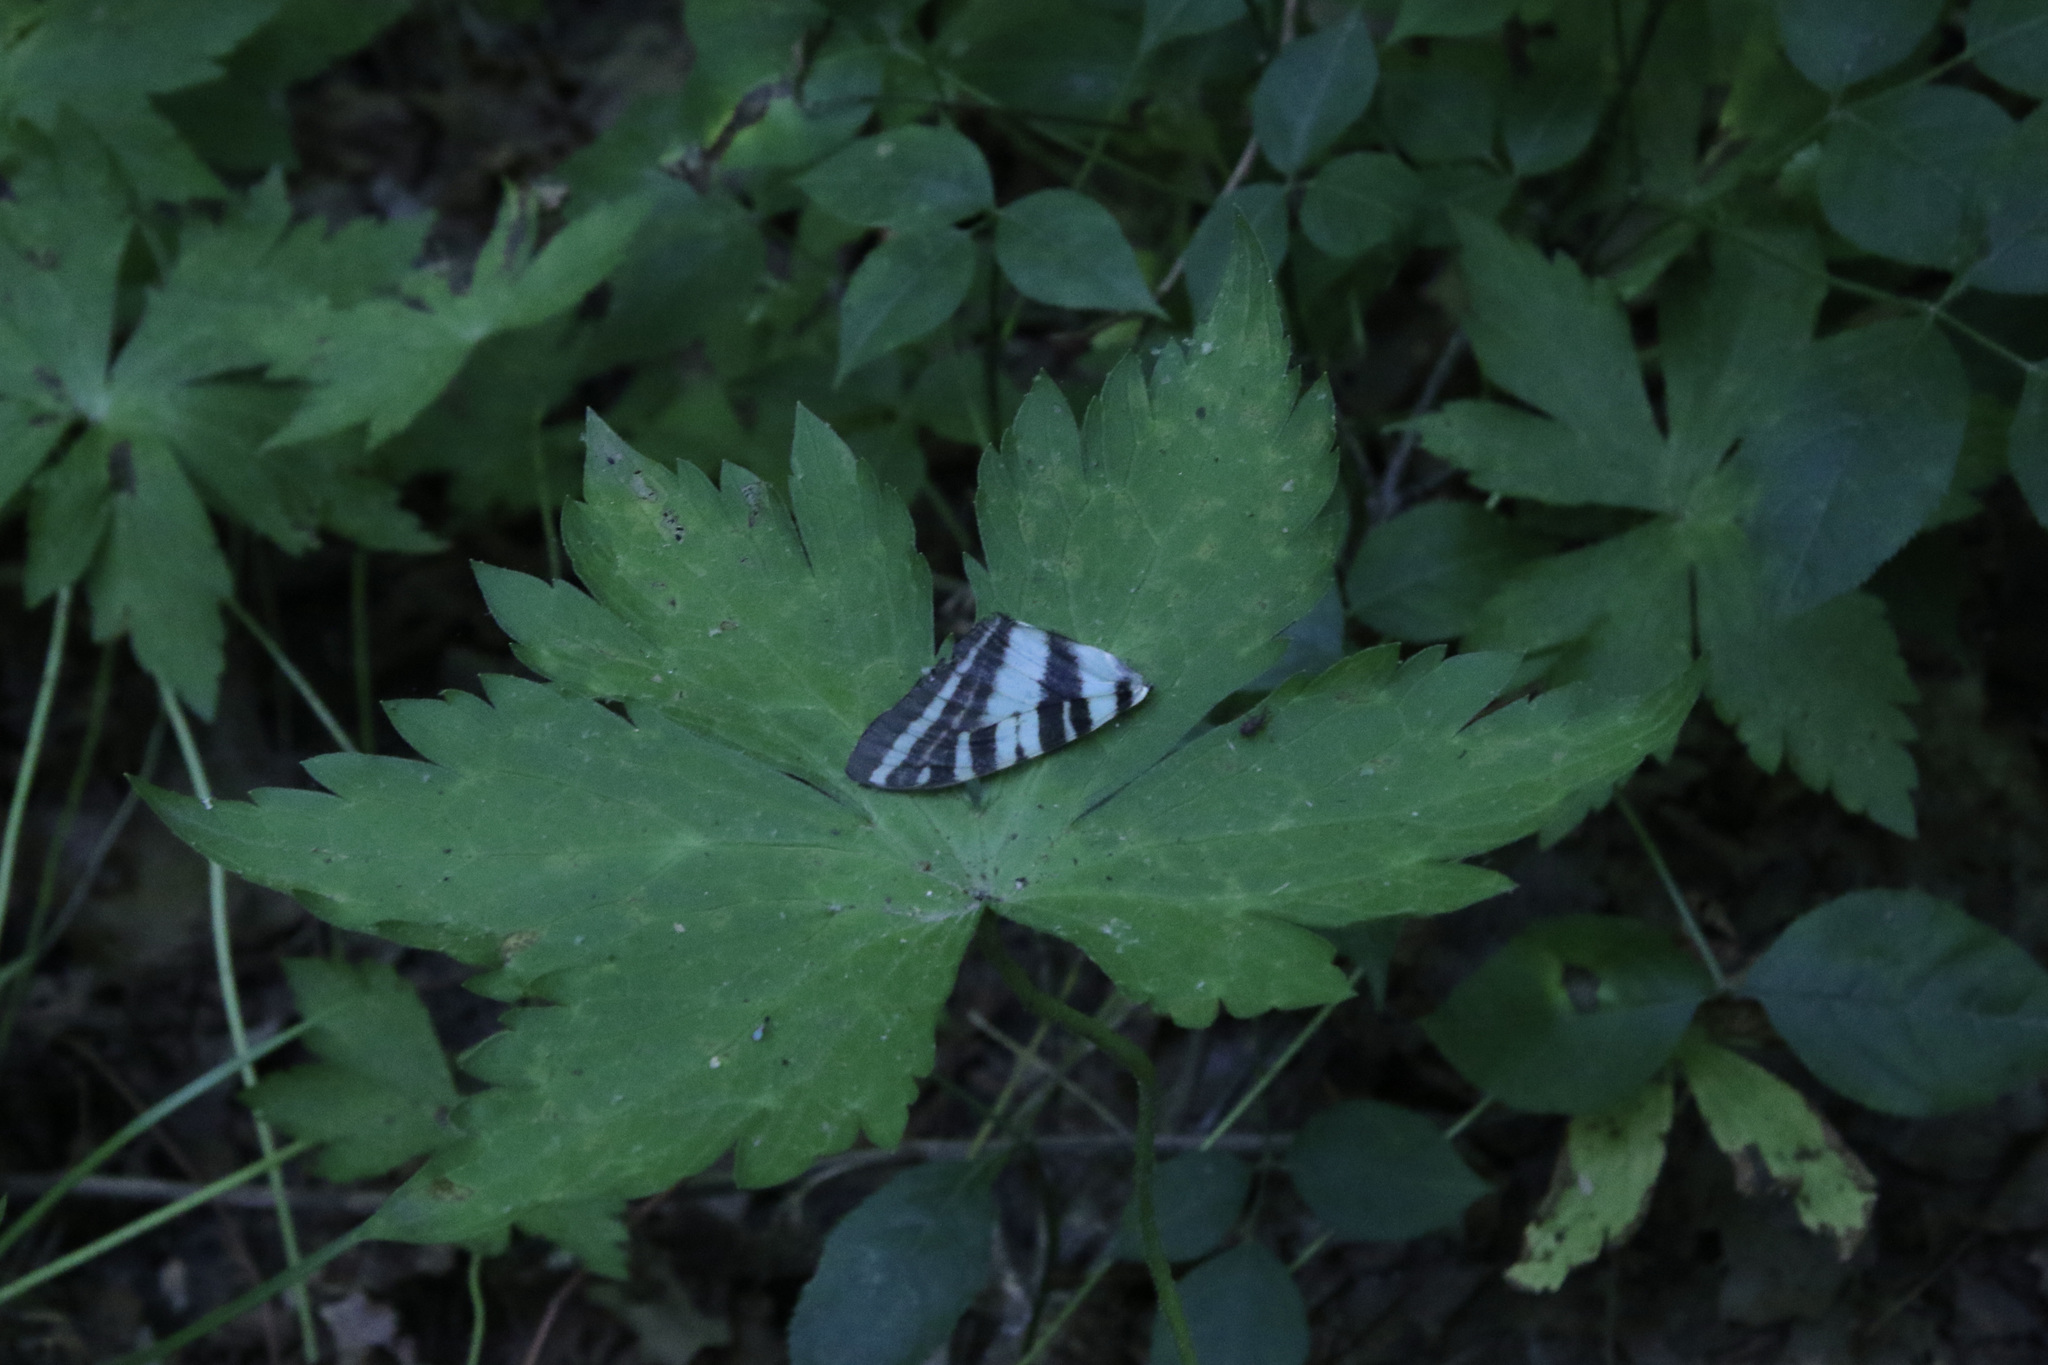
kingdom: Animalia
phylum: Arthropoda
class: Insecta
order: Lepidoptera
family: Papilionidae
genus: Protographium
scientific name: Protographium marcellus
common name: Zebra swallowtail
